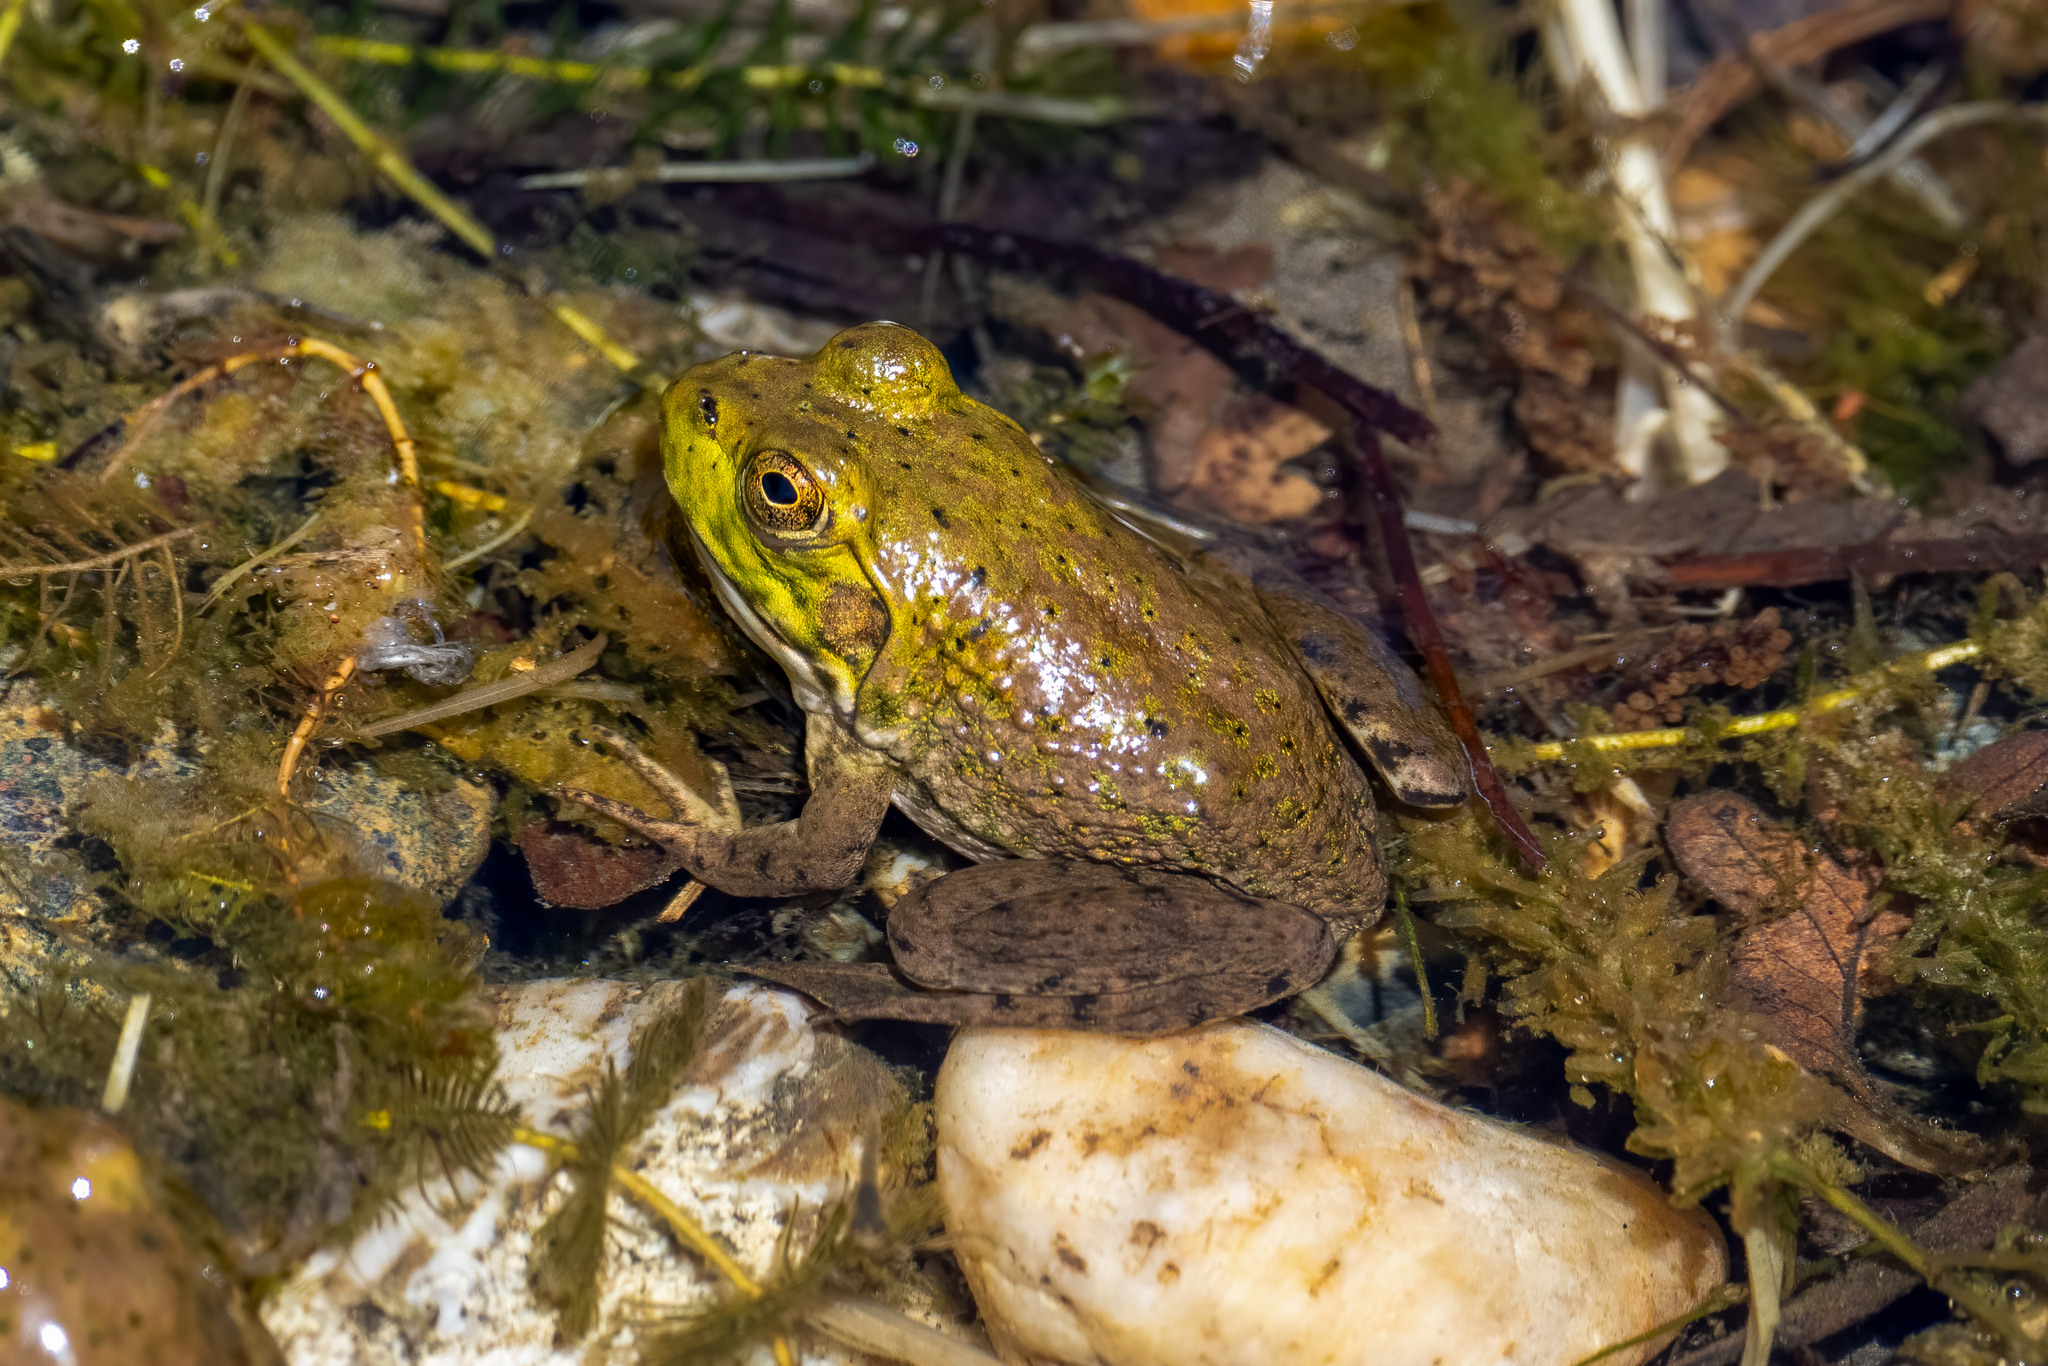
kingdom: Animalia
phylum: Chordata
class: Amphibia
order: Anura
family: Ranidae
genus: Lithobates
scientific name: Lithobates catesbeianus
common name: American bullfrog
